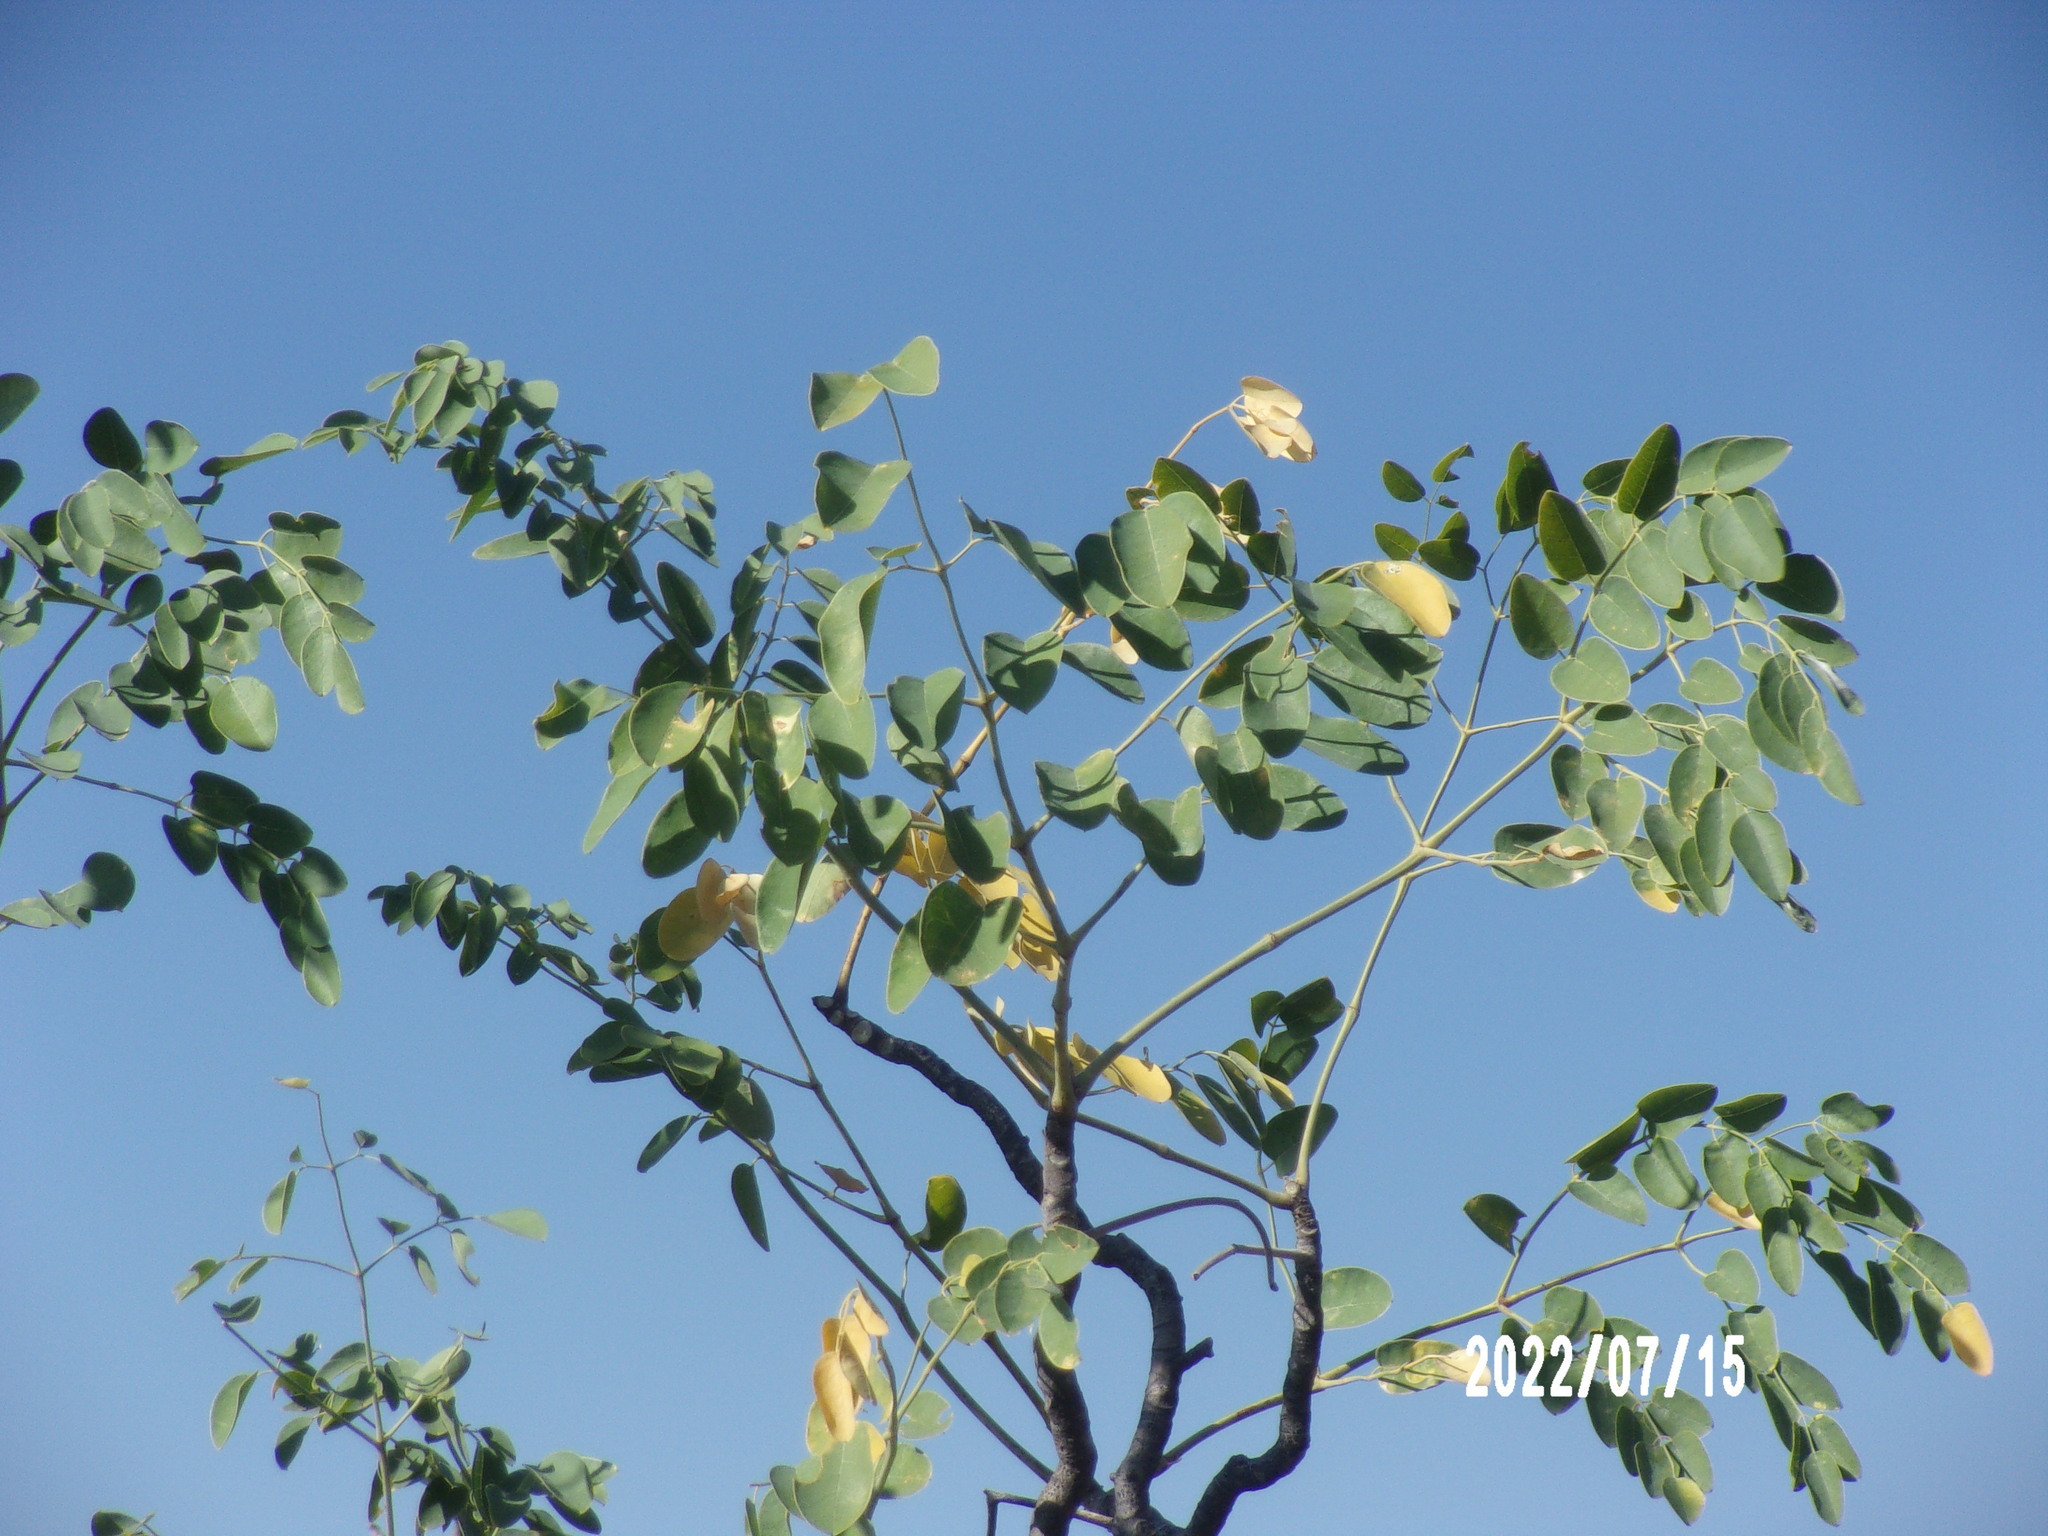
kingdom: Plantae
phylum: Tracheophyta
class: Magnoliopsida
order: Brassicales
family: Moringaceae
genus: Moringa
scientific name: Moringa ovalifolia
